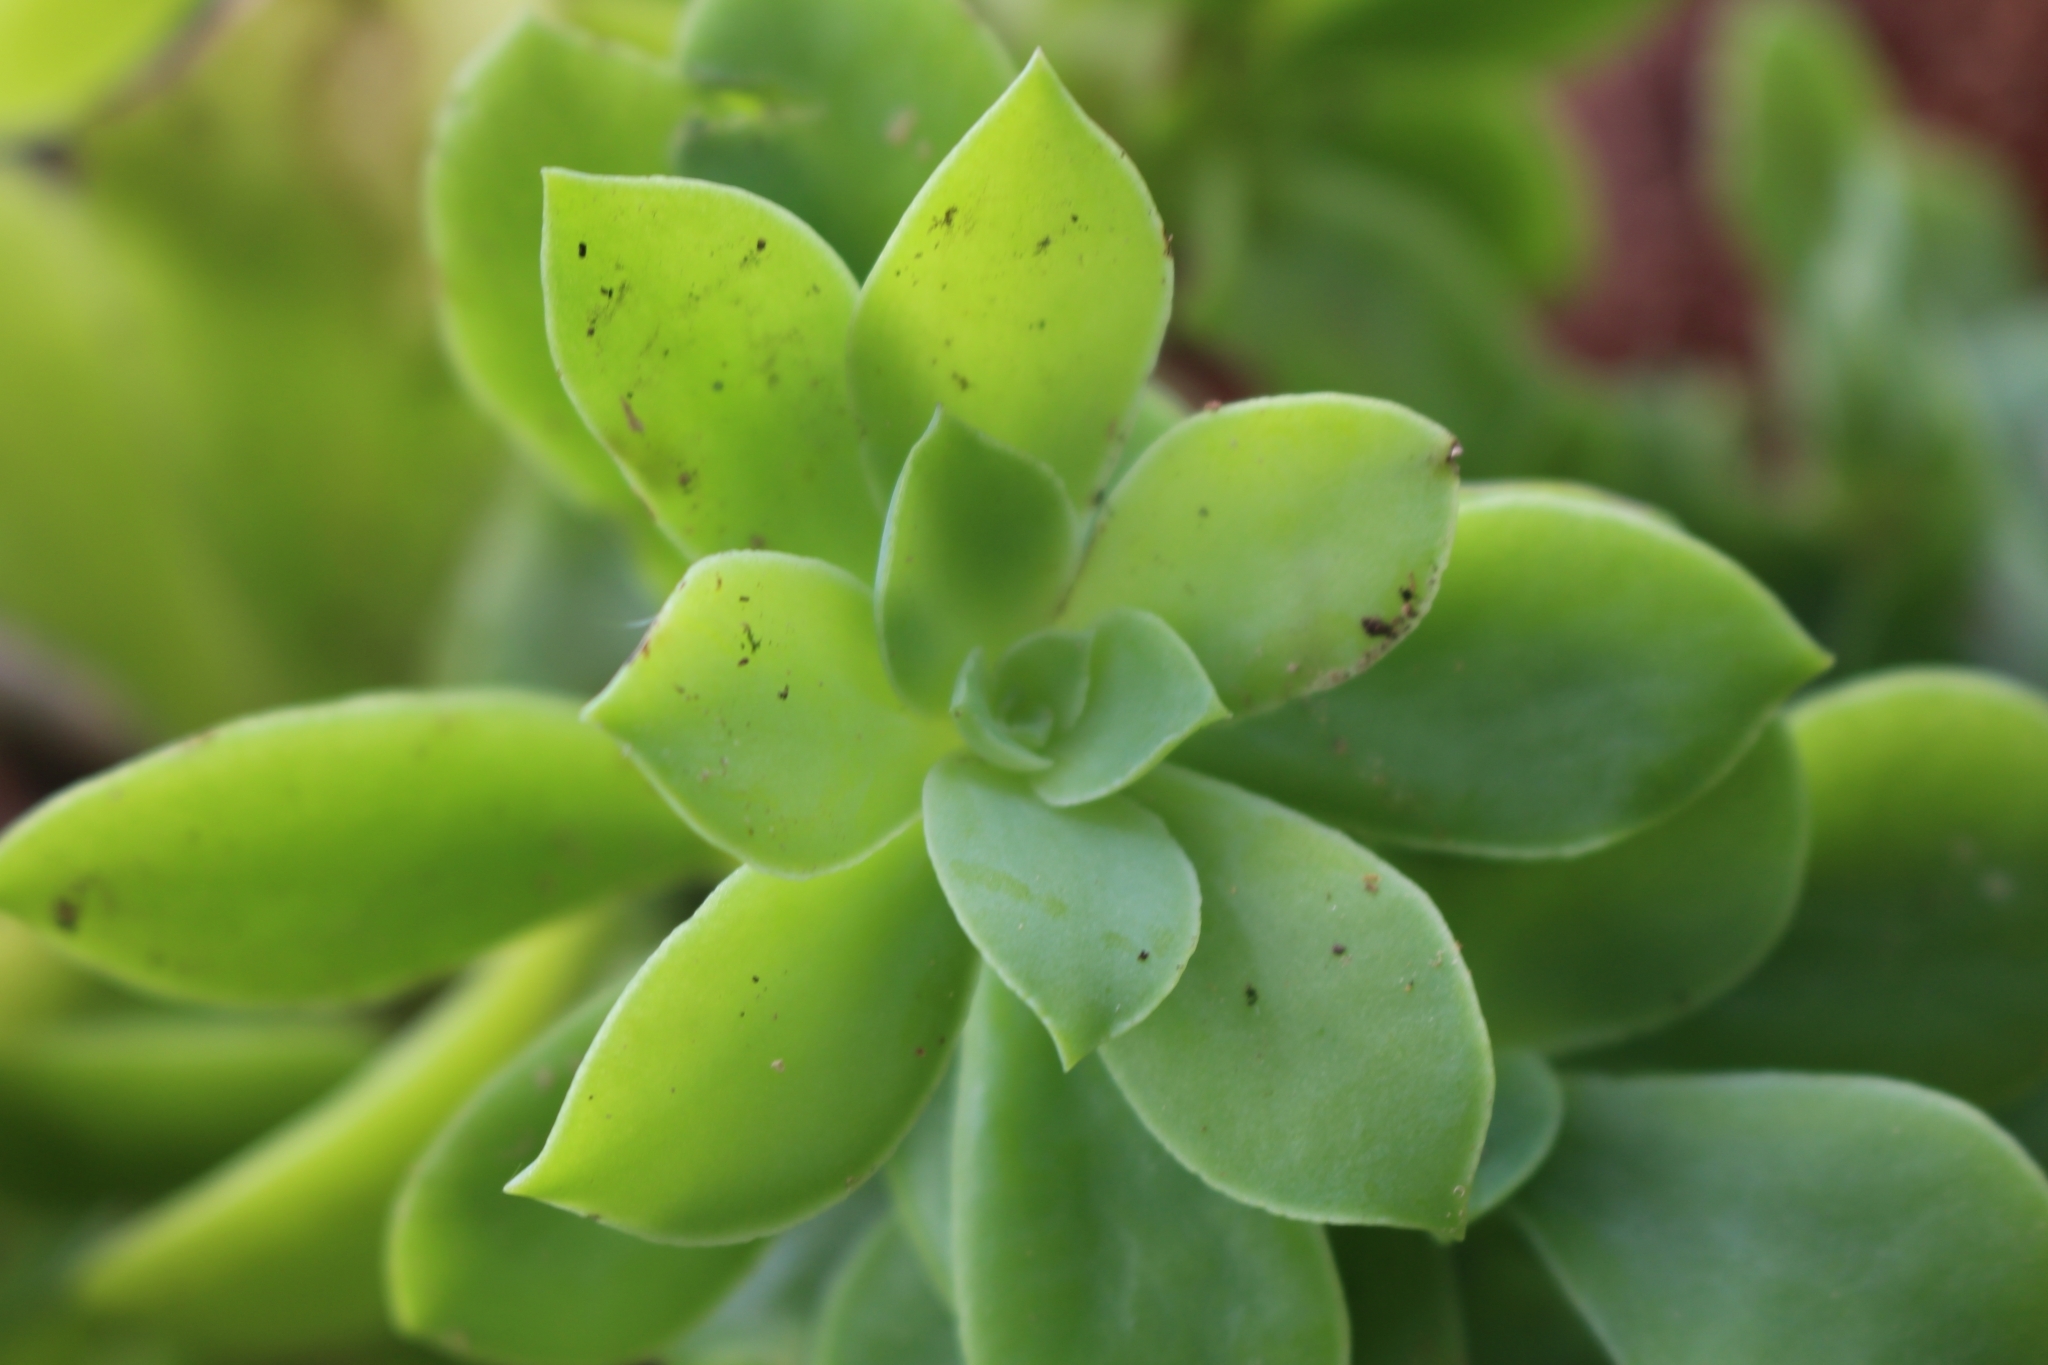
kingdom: Plantae
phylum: Tracheophyta
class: Magnoliopsida
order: Saxifragales
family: Crassulaceae
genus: Echeveria
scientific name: Echeveria australis
